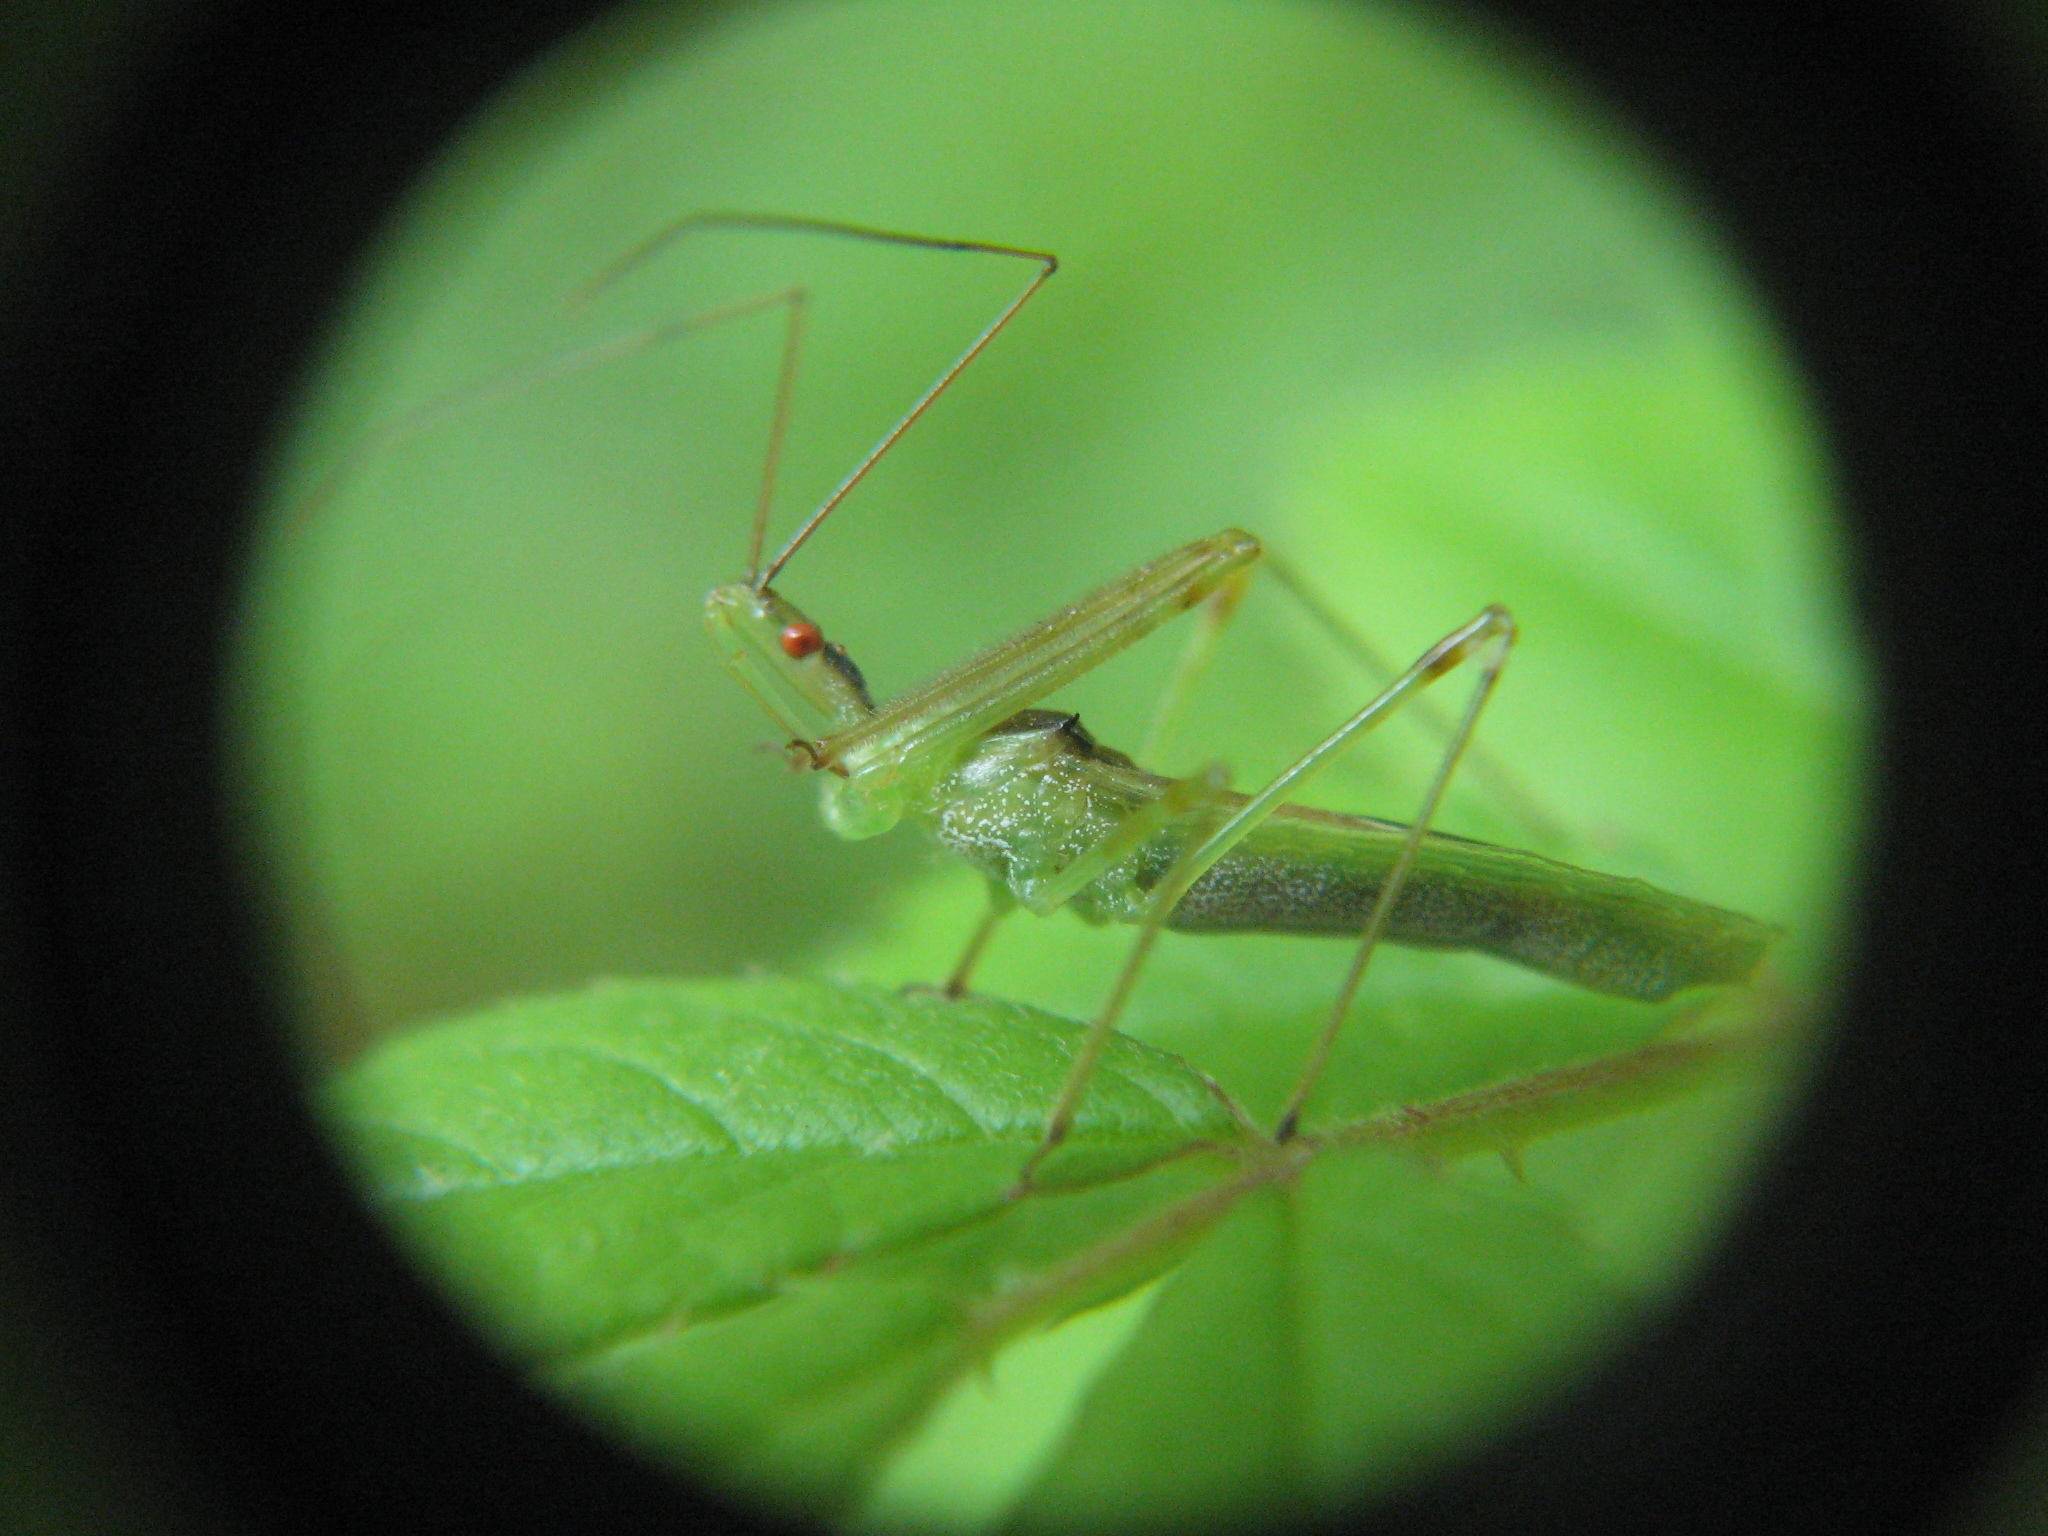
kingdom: Animalia
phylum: Arthropoda
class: Insecta
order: Hemiptera
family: Reduviidae
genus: Zelus
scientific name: Zelus luridus
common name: Pale green assassin bug
